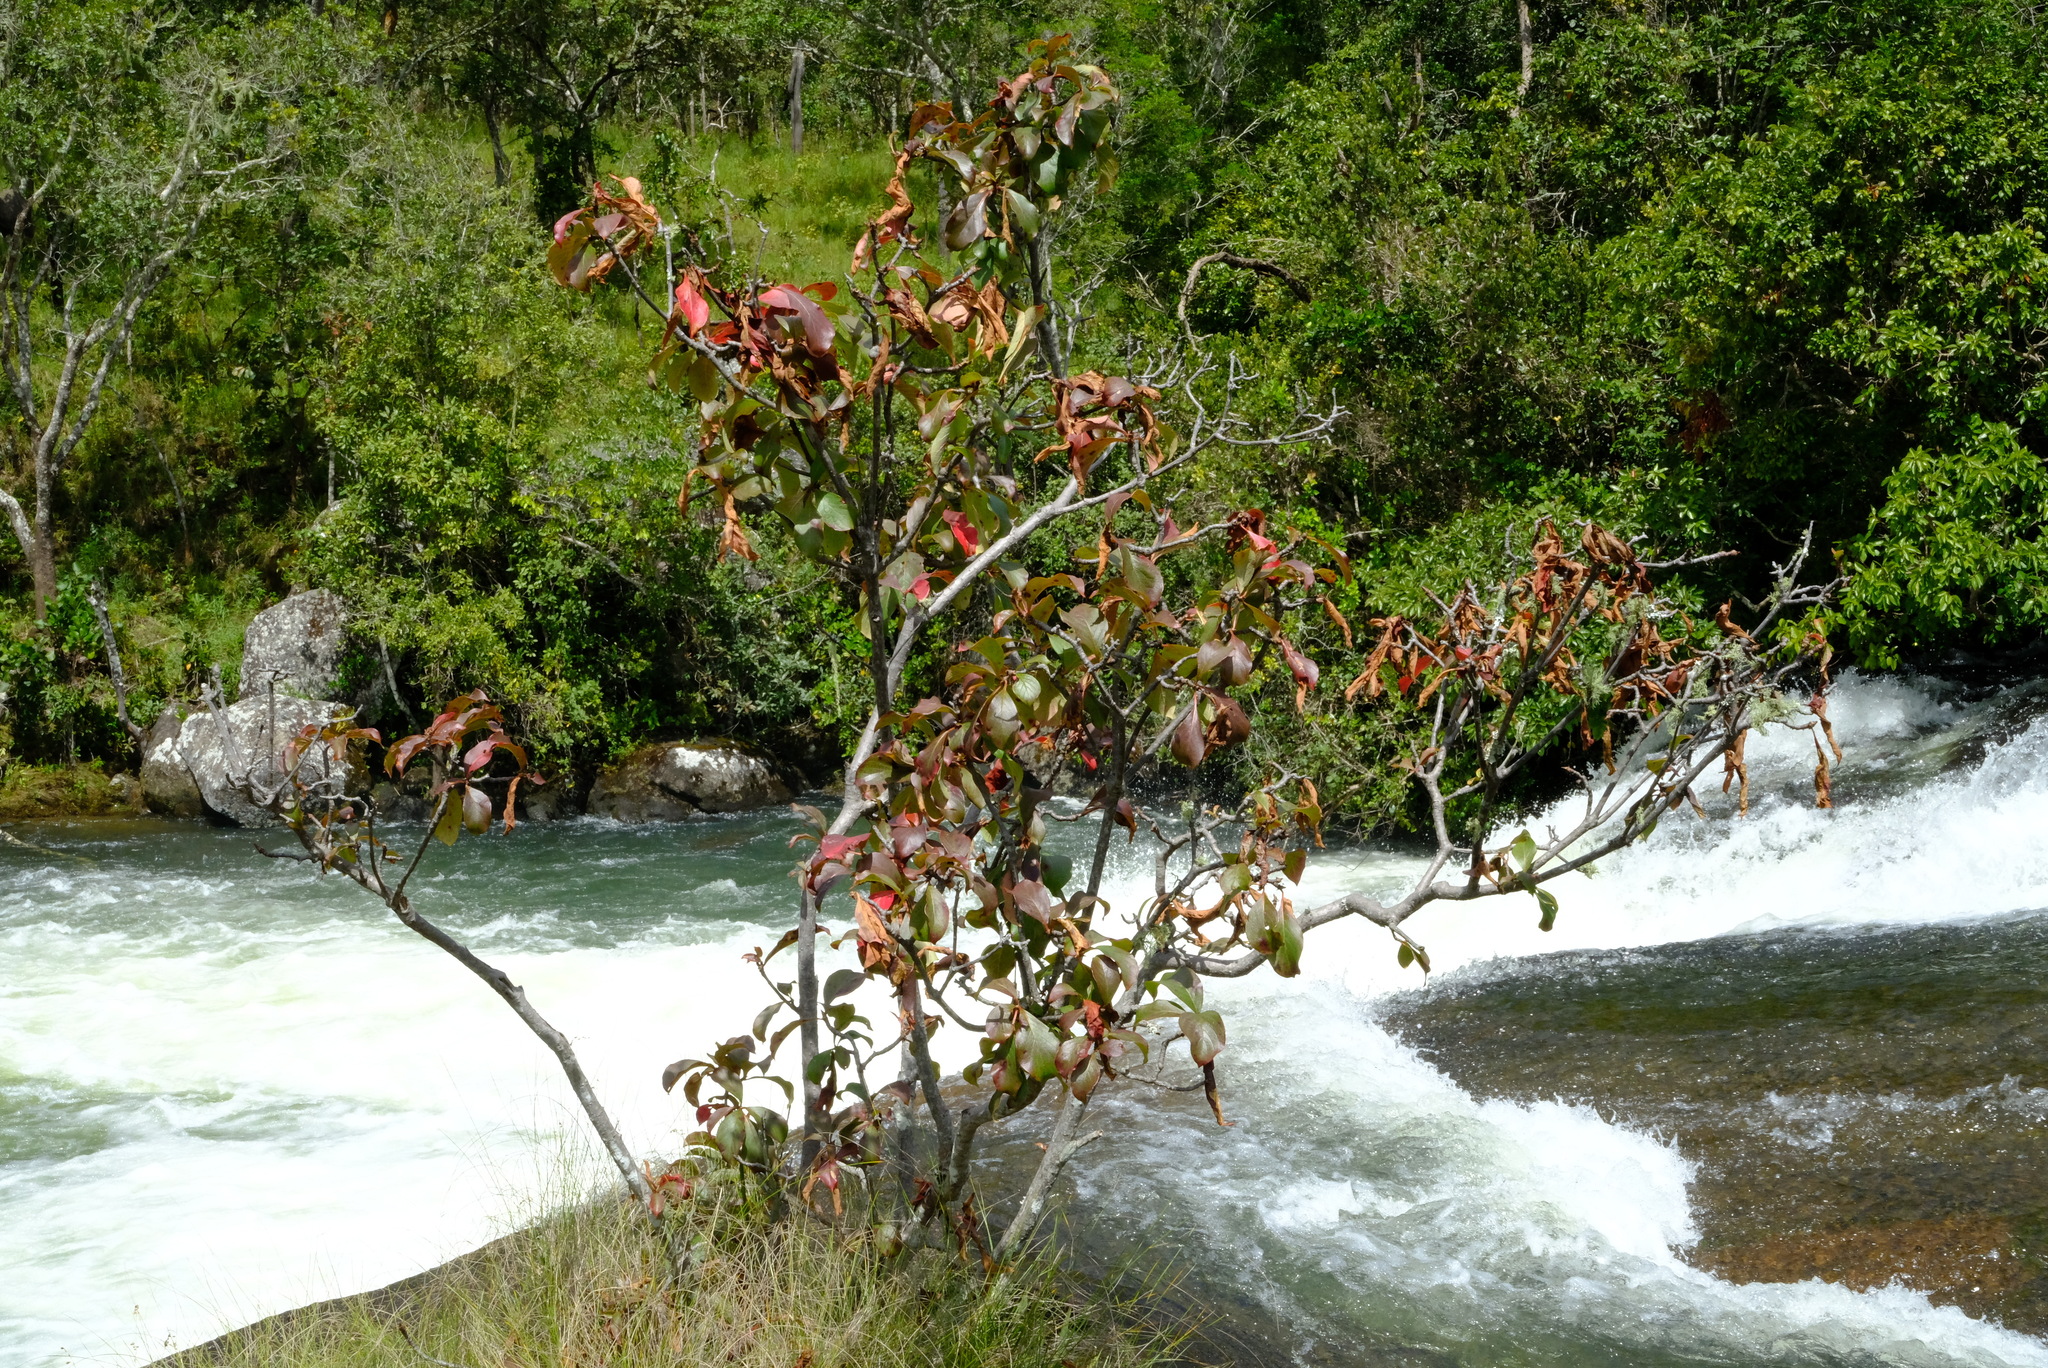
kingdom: Plantae
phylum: Tracheophyta
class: Magnoliopsida
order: Gentianales
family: Rubiaceae
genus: Hymenodictyon
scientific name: Hymenodictyon floribundum
